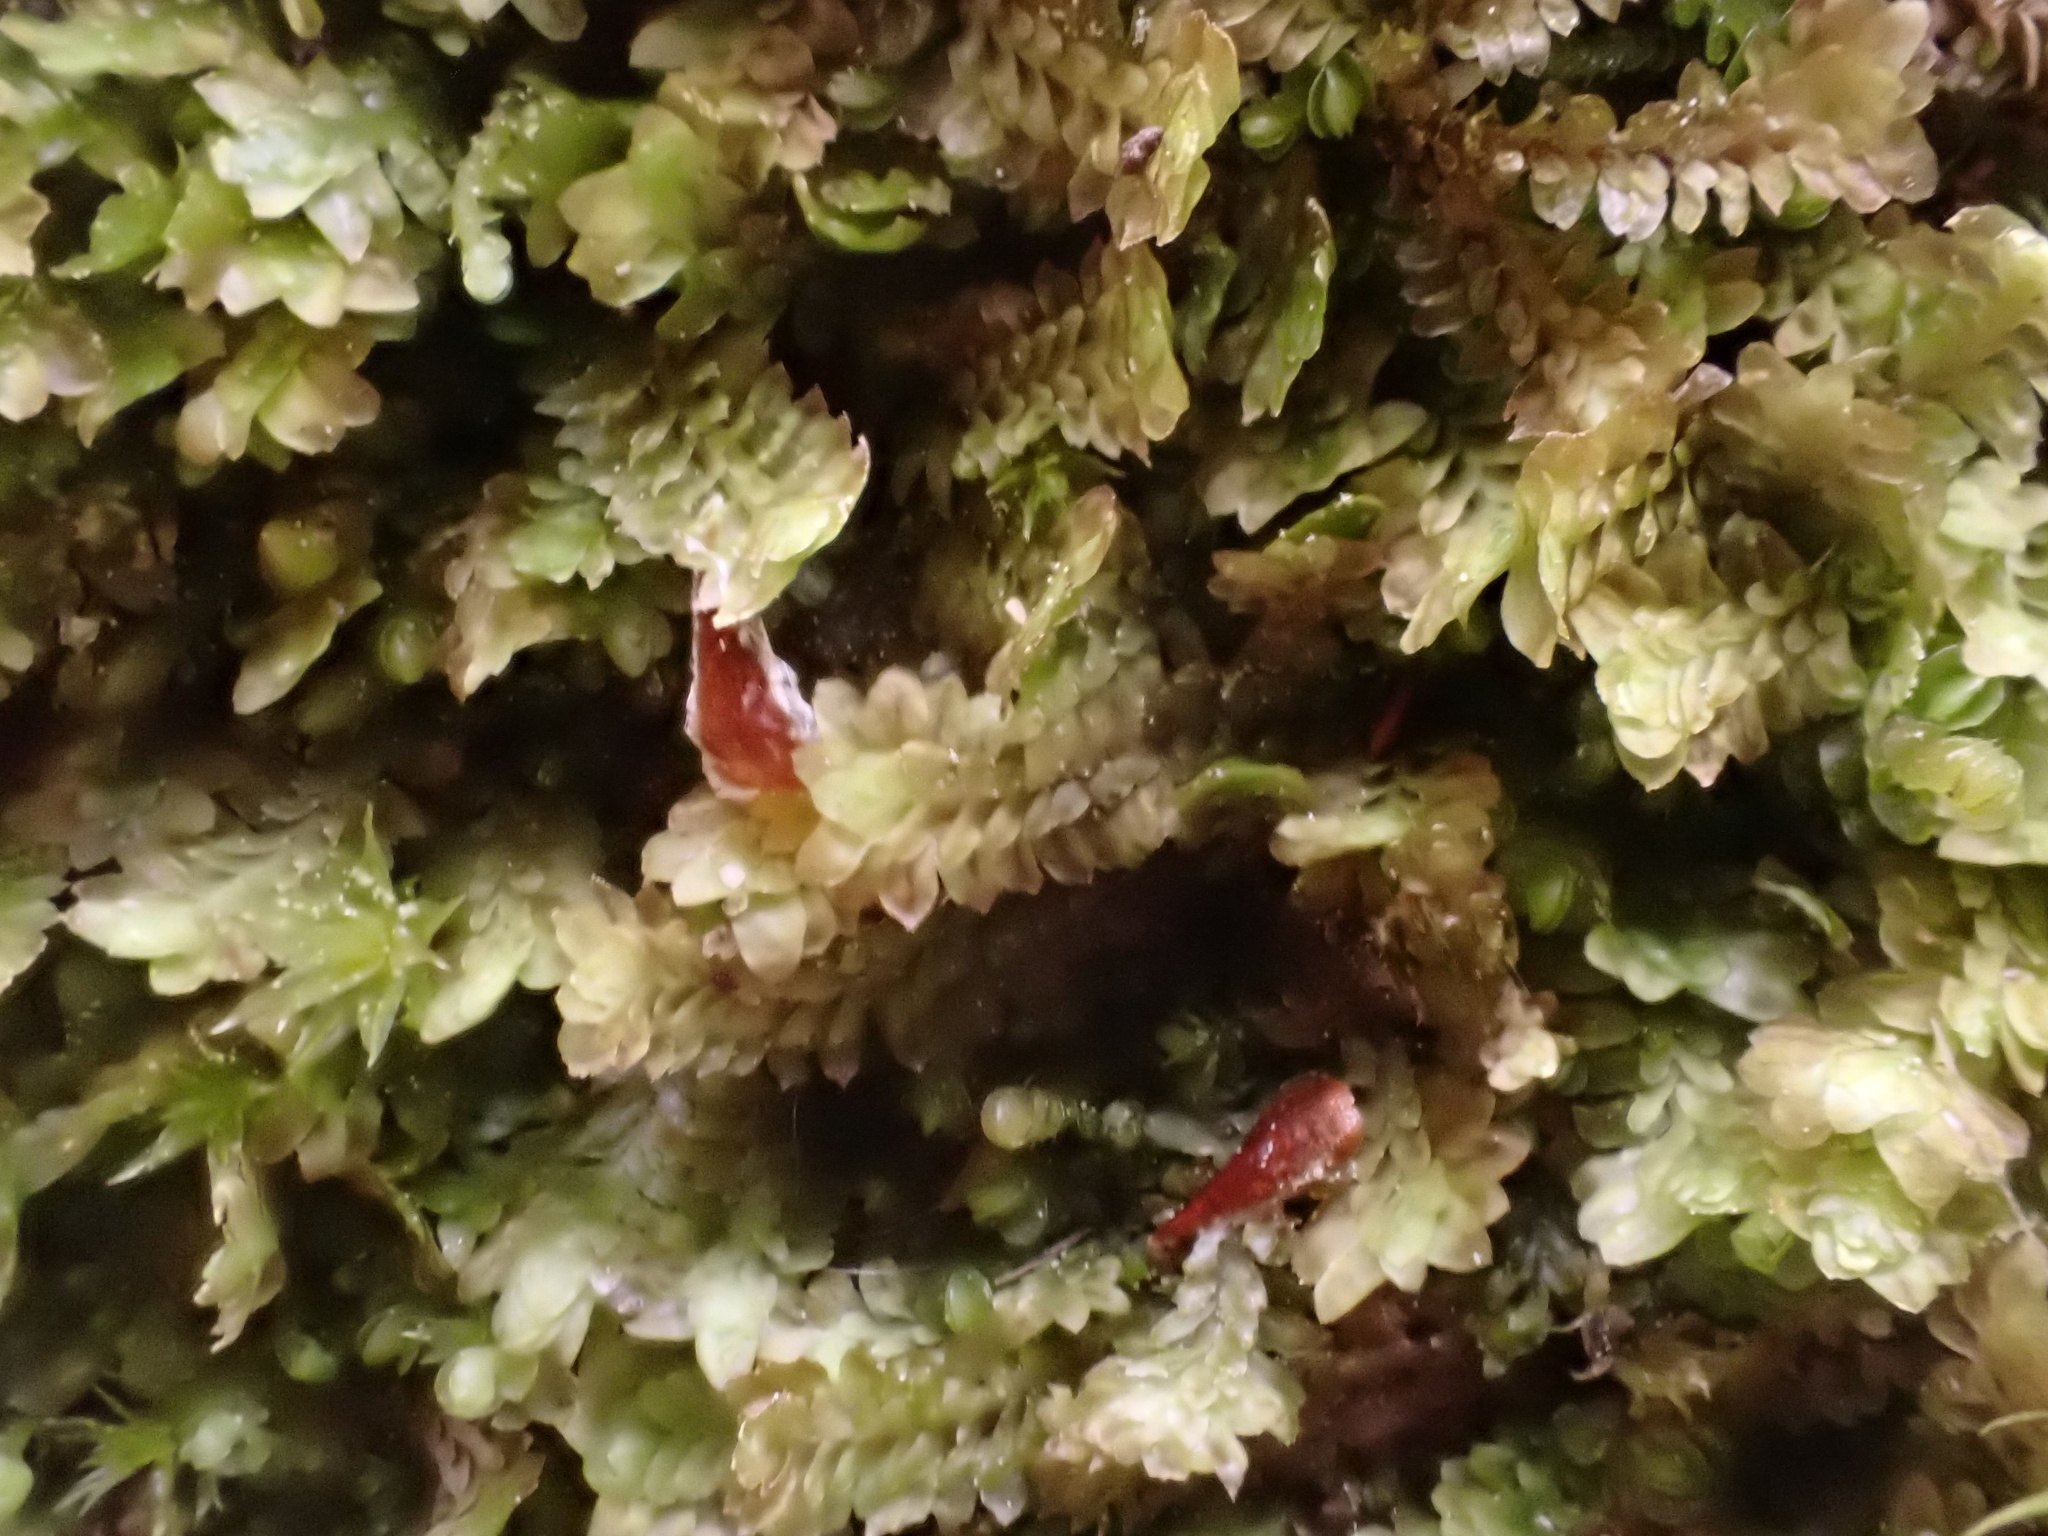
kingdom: Plantae
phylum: Marchantiophyta
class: Jungermanniopsida
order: Jungermanniales
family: Scapaniaceae
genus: Diplophyllum
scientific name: Diplophyllum albicans
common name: White earwort
